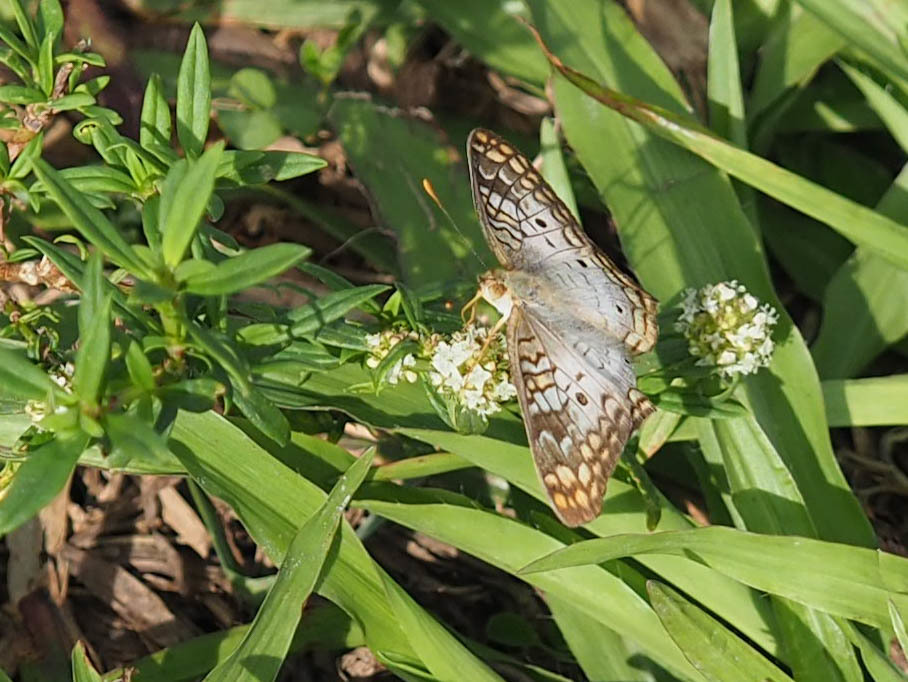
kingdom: Animalia
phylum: Arthropoda
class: Insecta
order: Lepidoptera
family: Nymphalidae
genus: Anartia
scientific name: Anartia jatrophae
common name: White peacock
